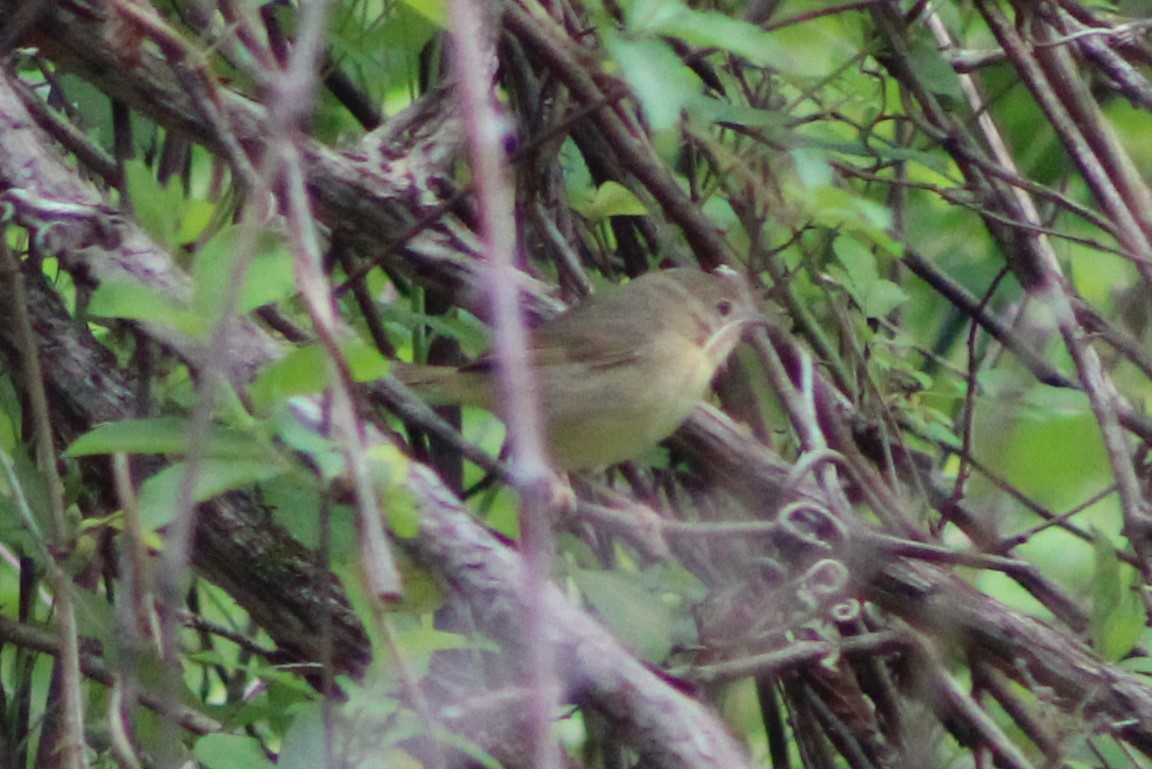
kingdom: Animalia
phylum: Chordata
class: Aves
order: Passeriformes
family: Parulidae
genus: Geothlypis
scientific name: Geothlypis trichas
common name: Common yellowthroat
